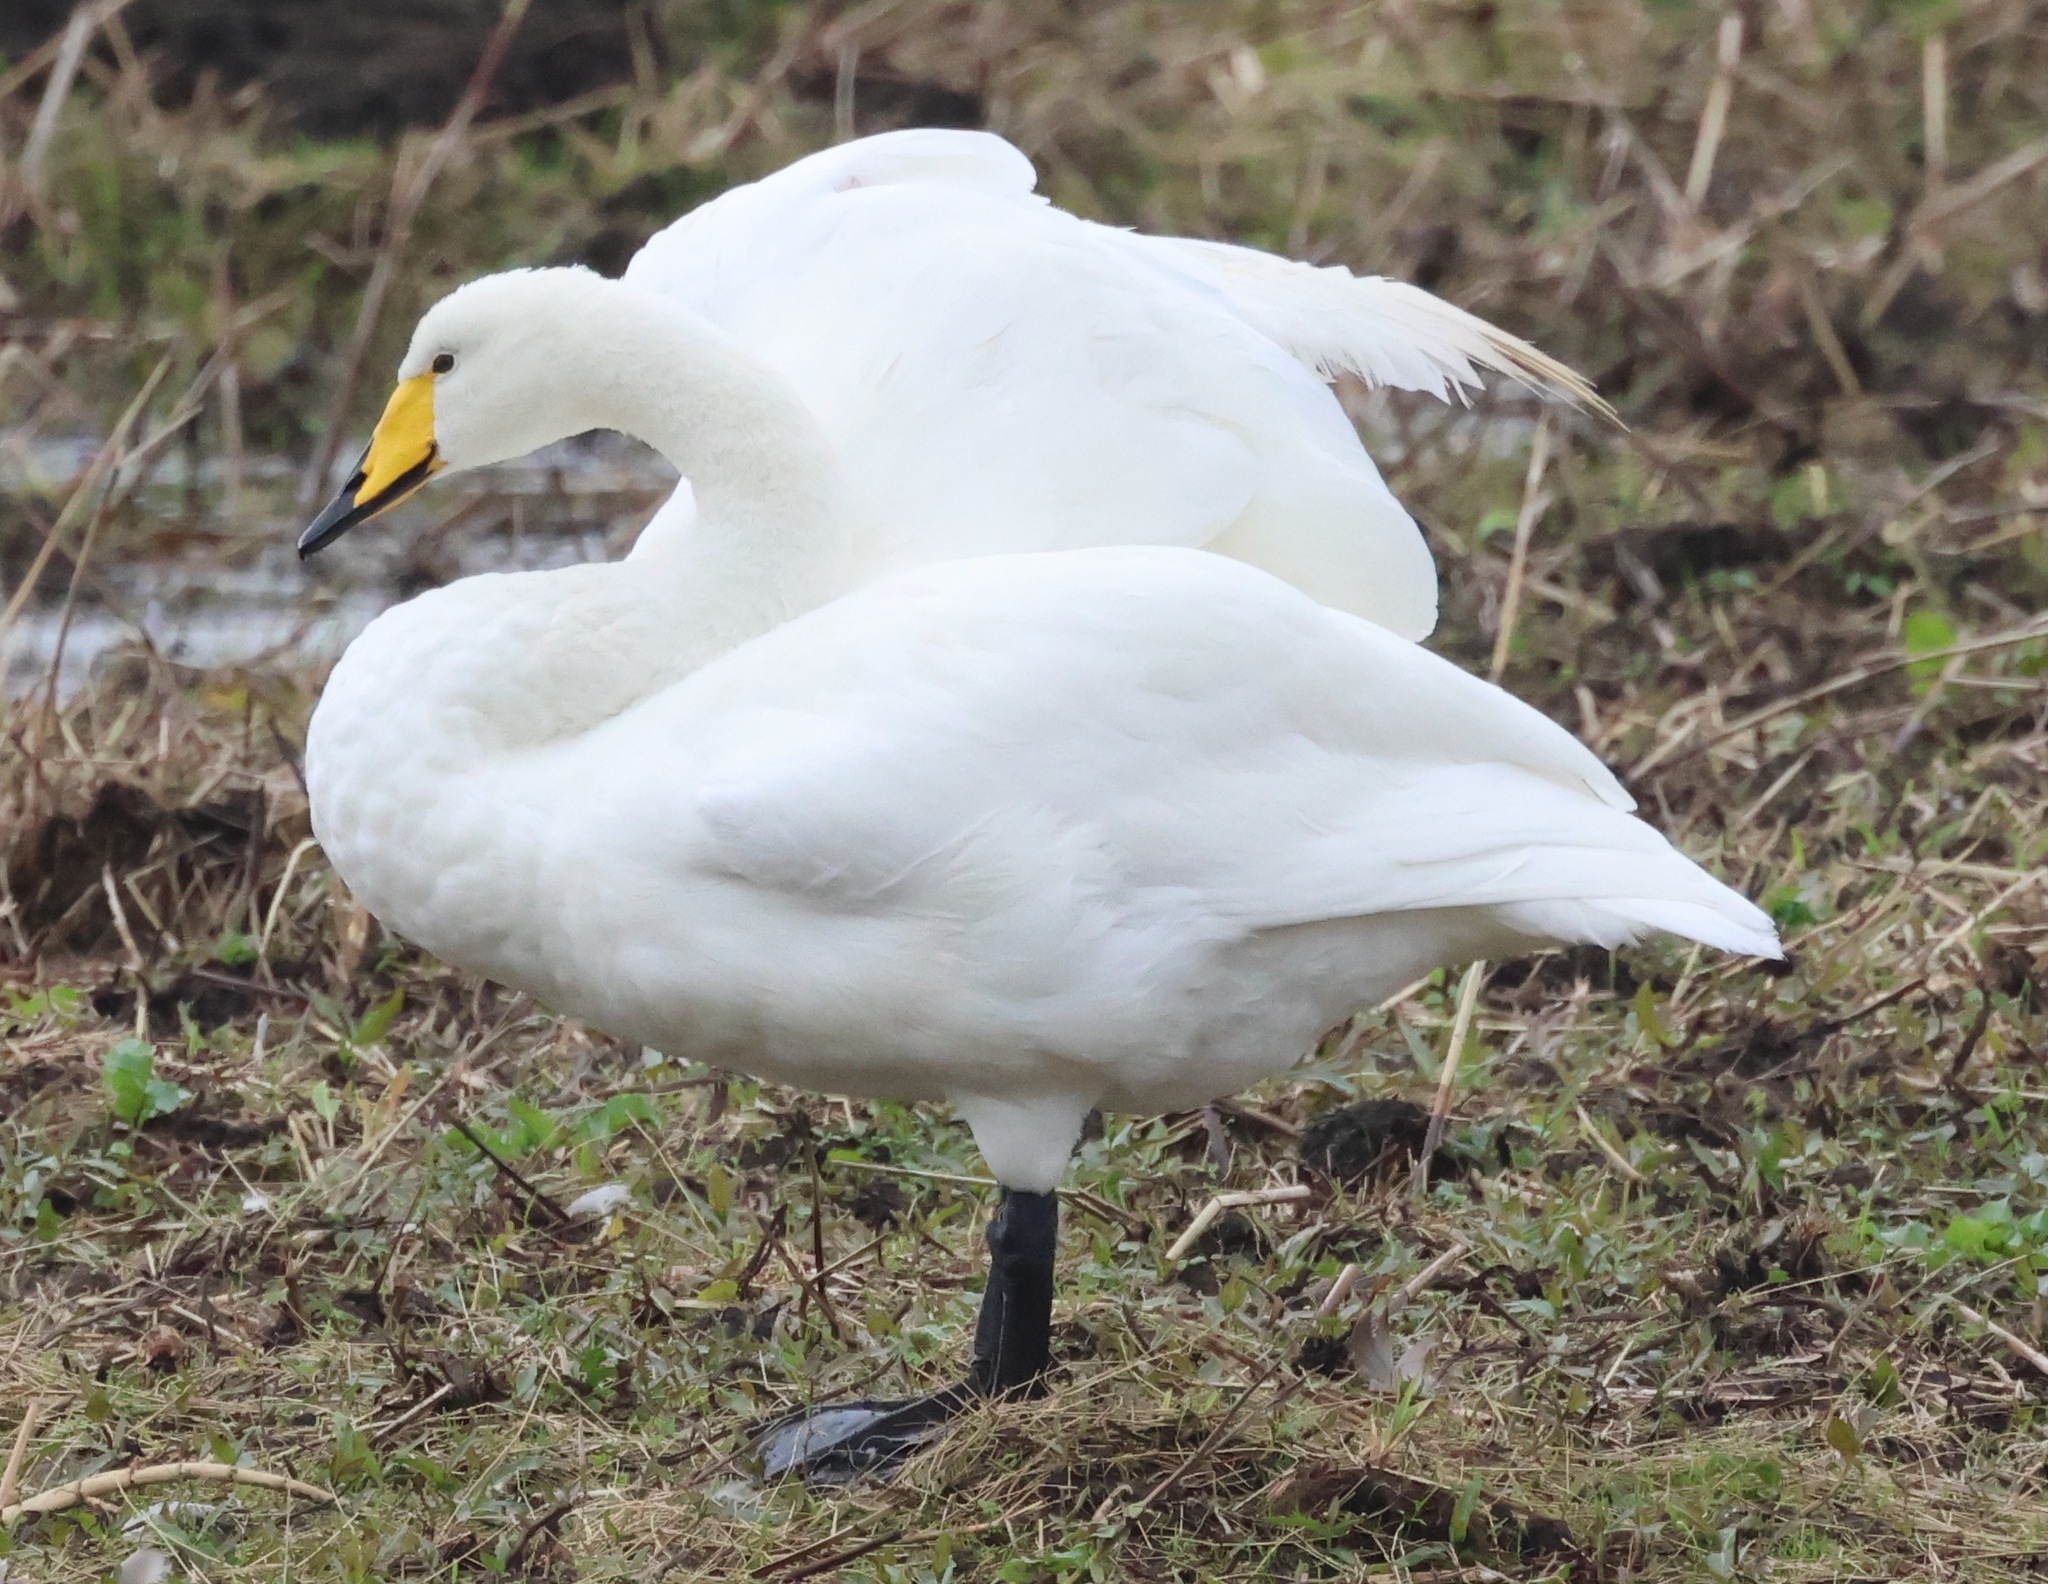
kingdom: Animalia
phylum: Chordata
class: Aves
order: Anseriformes
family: Anatidae
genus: Cygnus
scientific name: Cygnus cygnus
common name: Whooper swan
